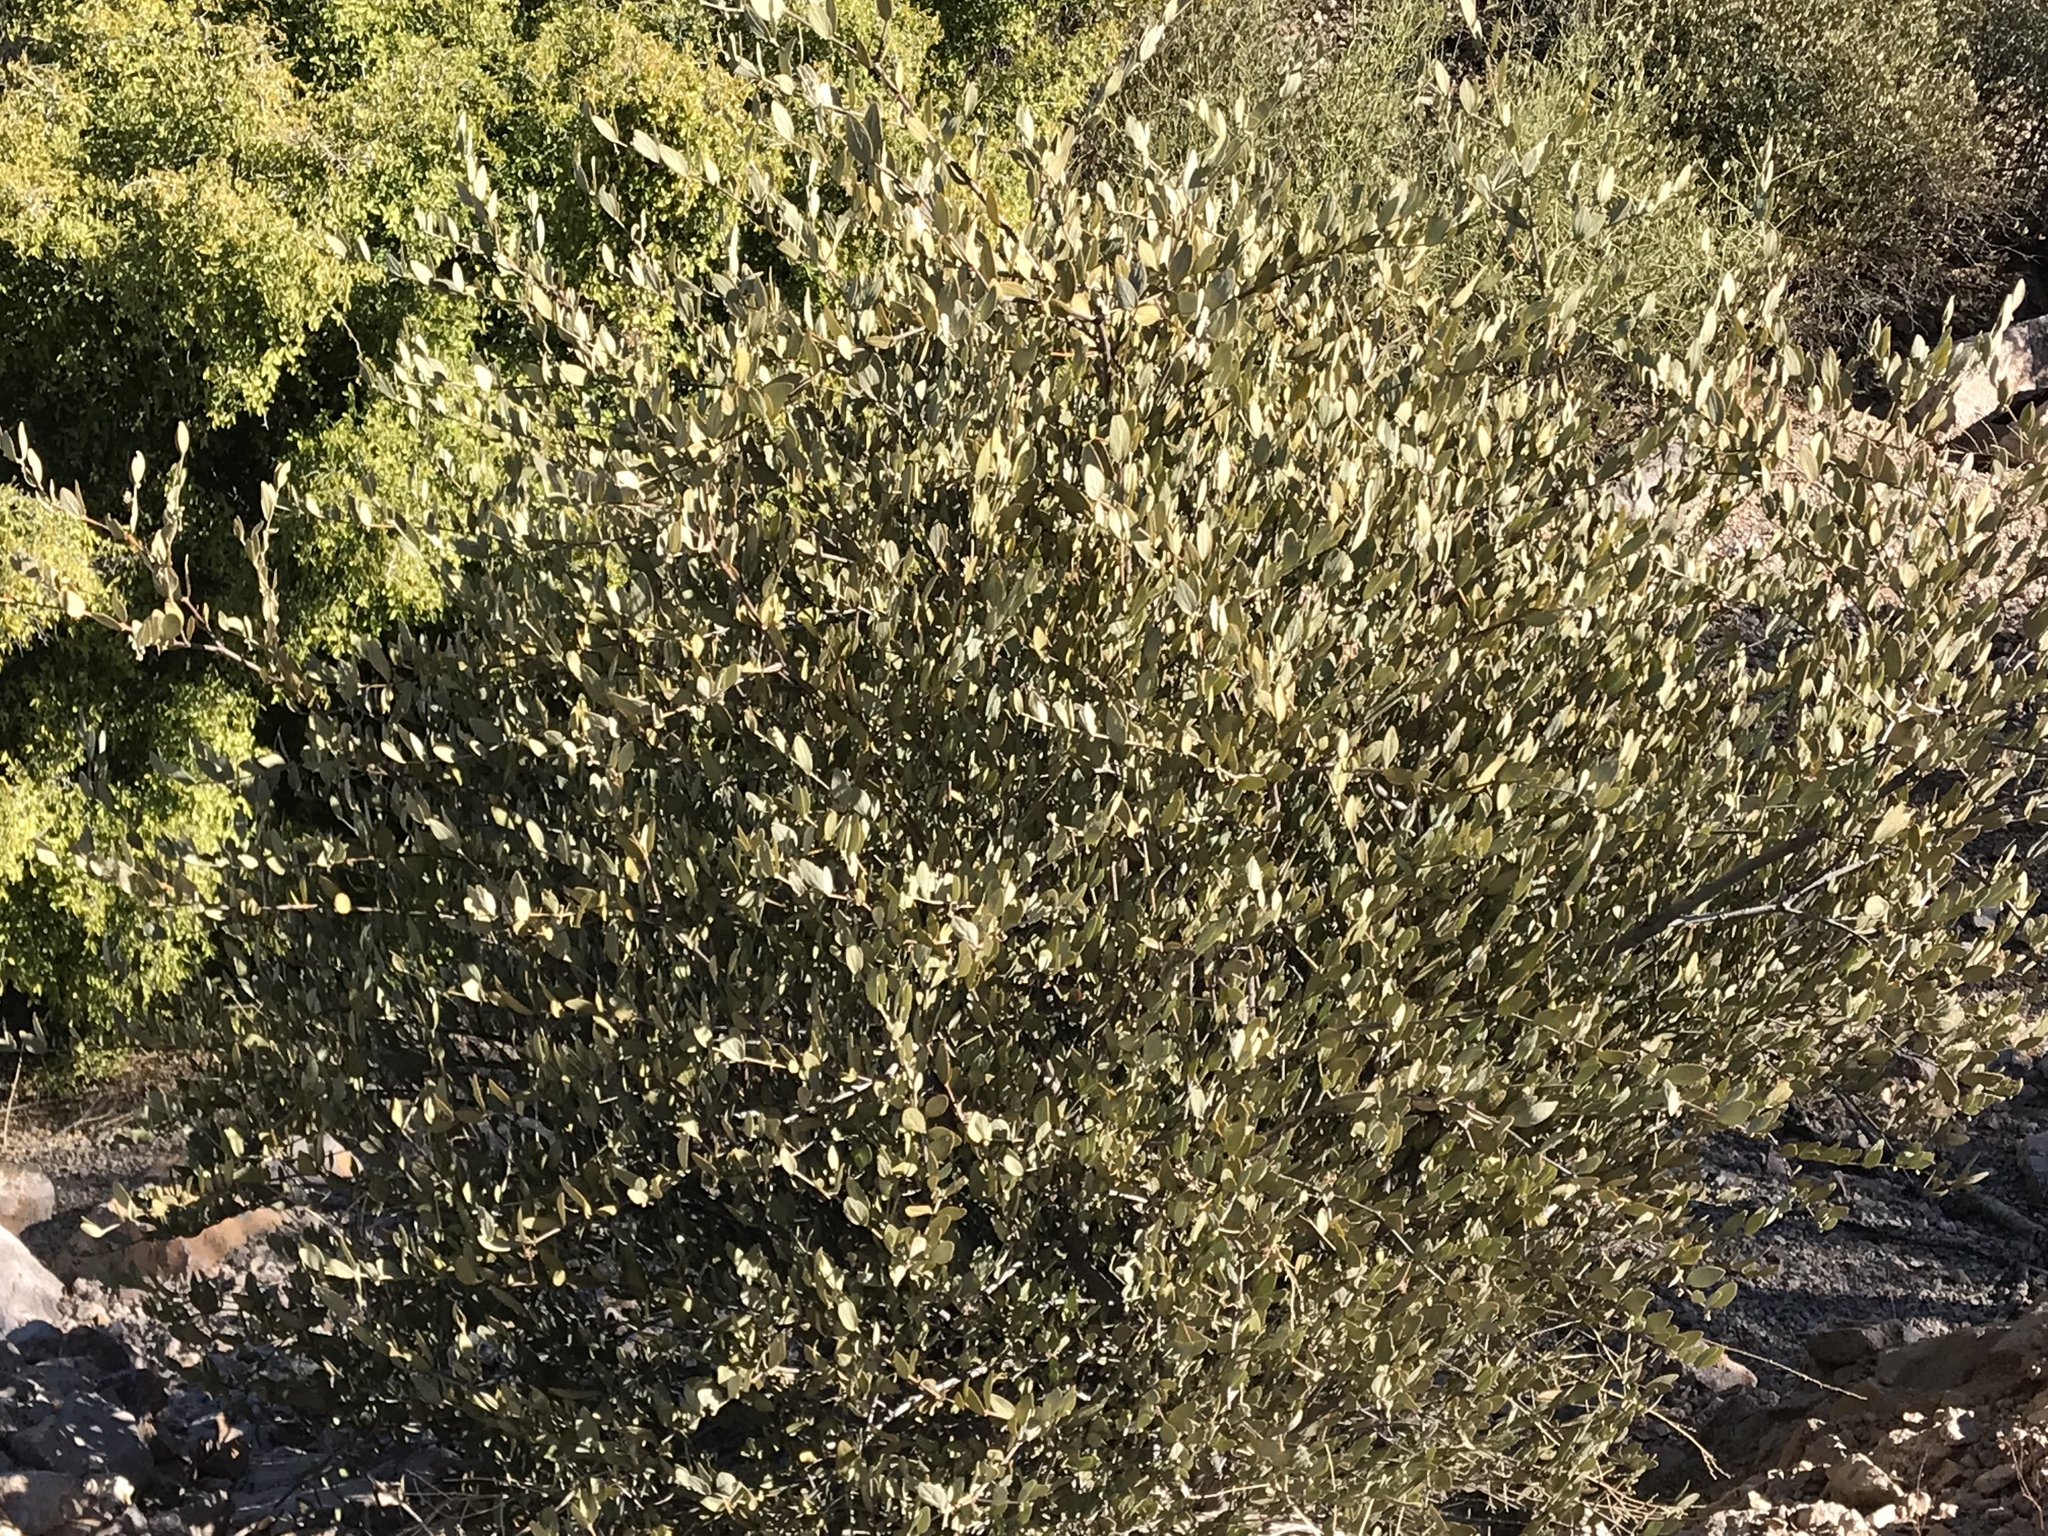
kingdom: Plantae
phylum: Tracheophyta
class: Magnoliopsida
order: Caryophyllales
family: Simmondsiaceae
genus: Simmondsia
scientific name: Simmondsia chinensis
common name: Jojoba
